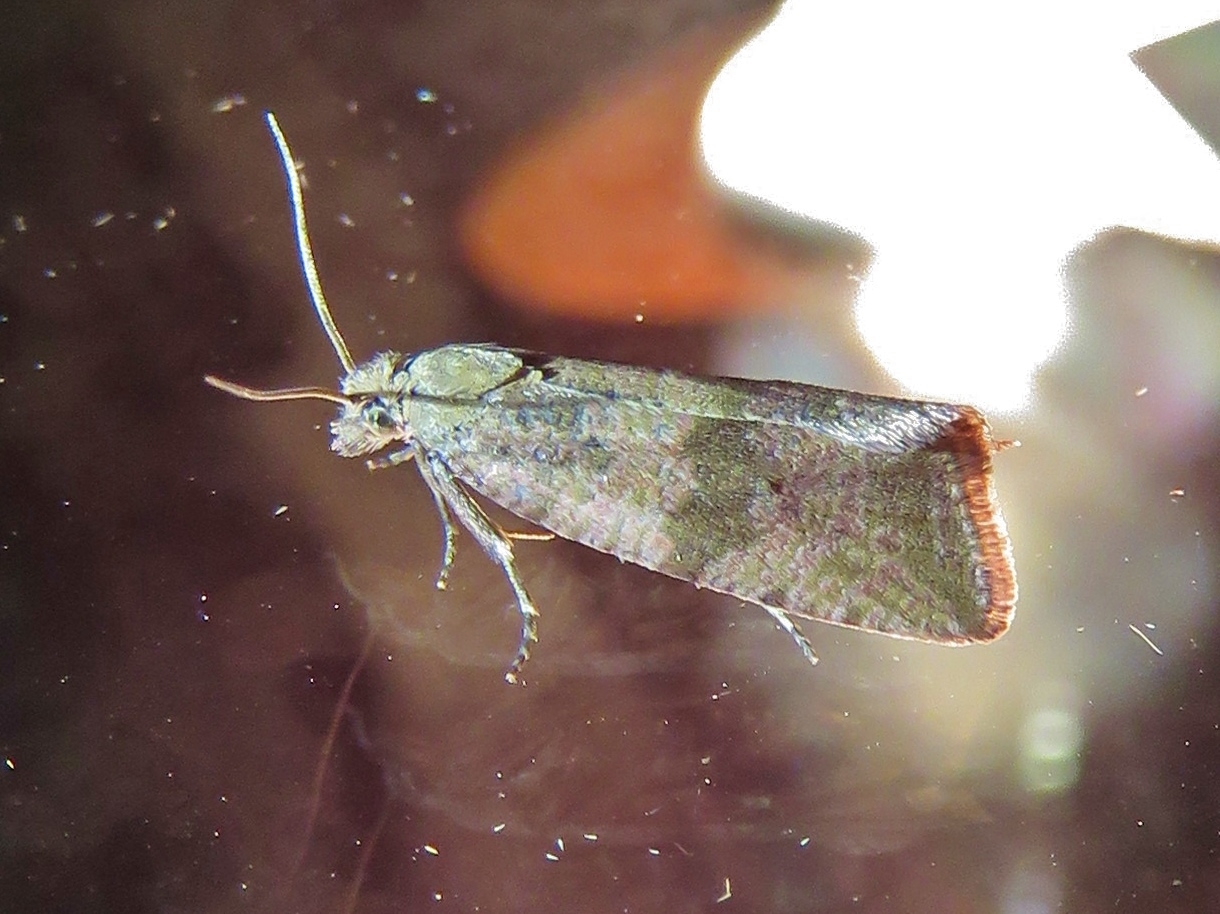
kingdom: Animalia
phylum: Arthropoda
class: Insecta
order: Lepidoptera
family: Tortricidae
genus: Celypha
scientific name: Celypha striana
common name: Barred marble
